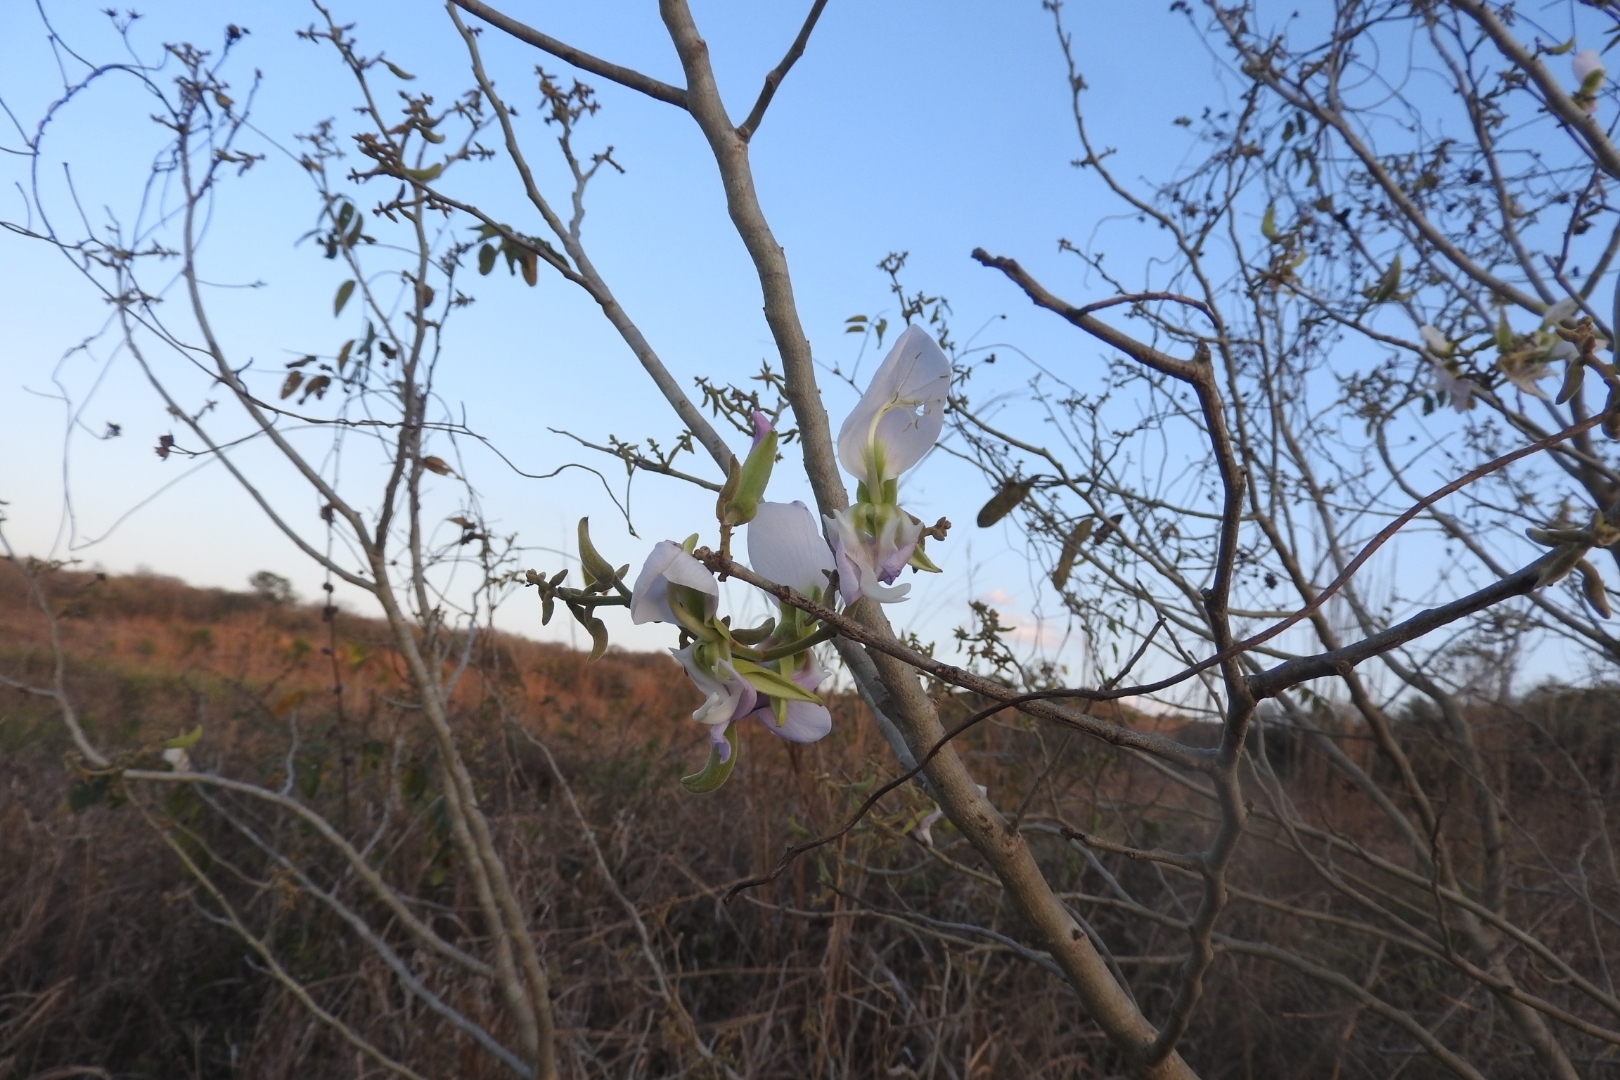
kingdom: Plantae
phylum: Tracheophyta
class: Magnoliopsida
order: Fabales
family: Fabaceae
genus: Gliricidia
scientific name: Gliricidia sepium
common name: Quickstick
